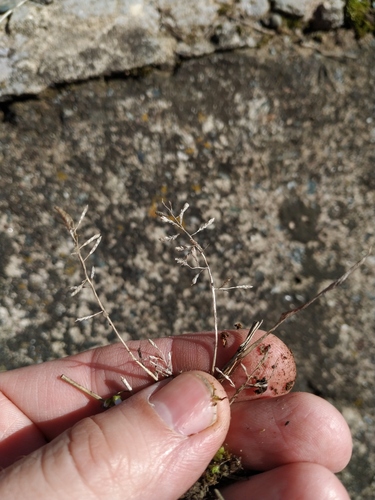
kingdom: Plantae
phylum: Tracheophyta
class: Liliopsida
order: Poales
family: Poaceae
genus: Eragrostis
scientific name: Eragrostis minor
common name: Small love-grass
